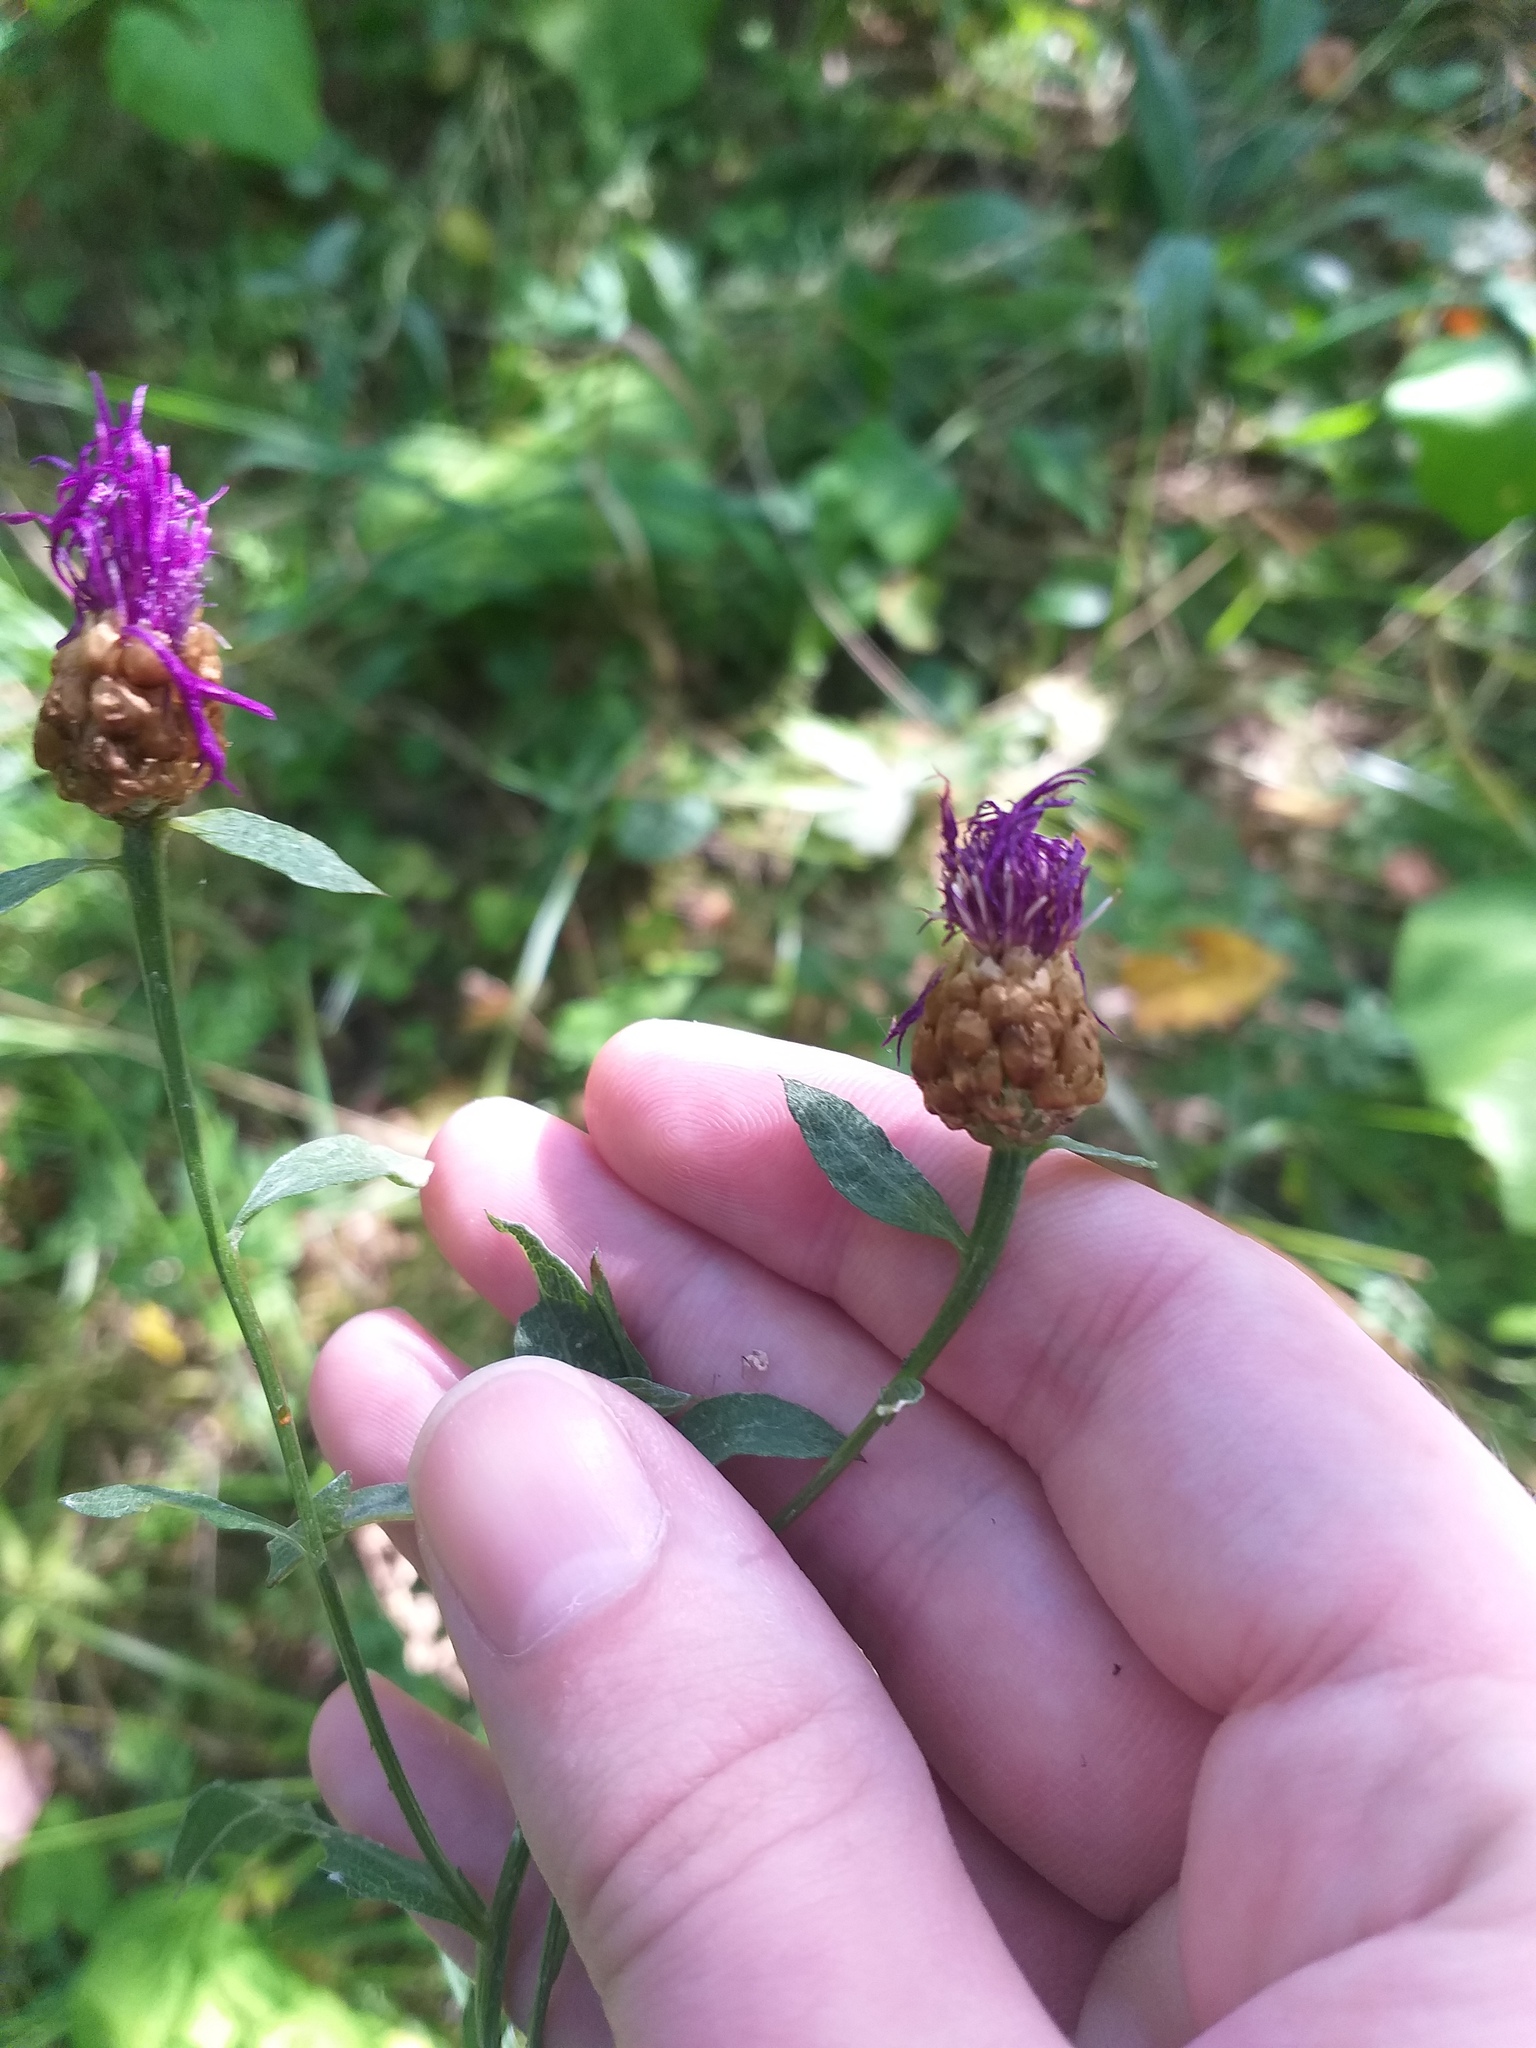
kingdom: Plantae
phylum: Tracheophyta
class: Magnoliopsida
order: Asterales
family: Asteraceae
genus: Centaurea
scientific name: Centaurea jacea
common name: Brown knapweed
